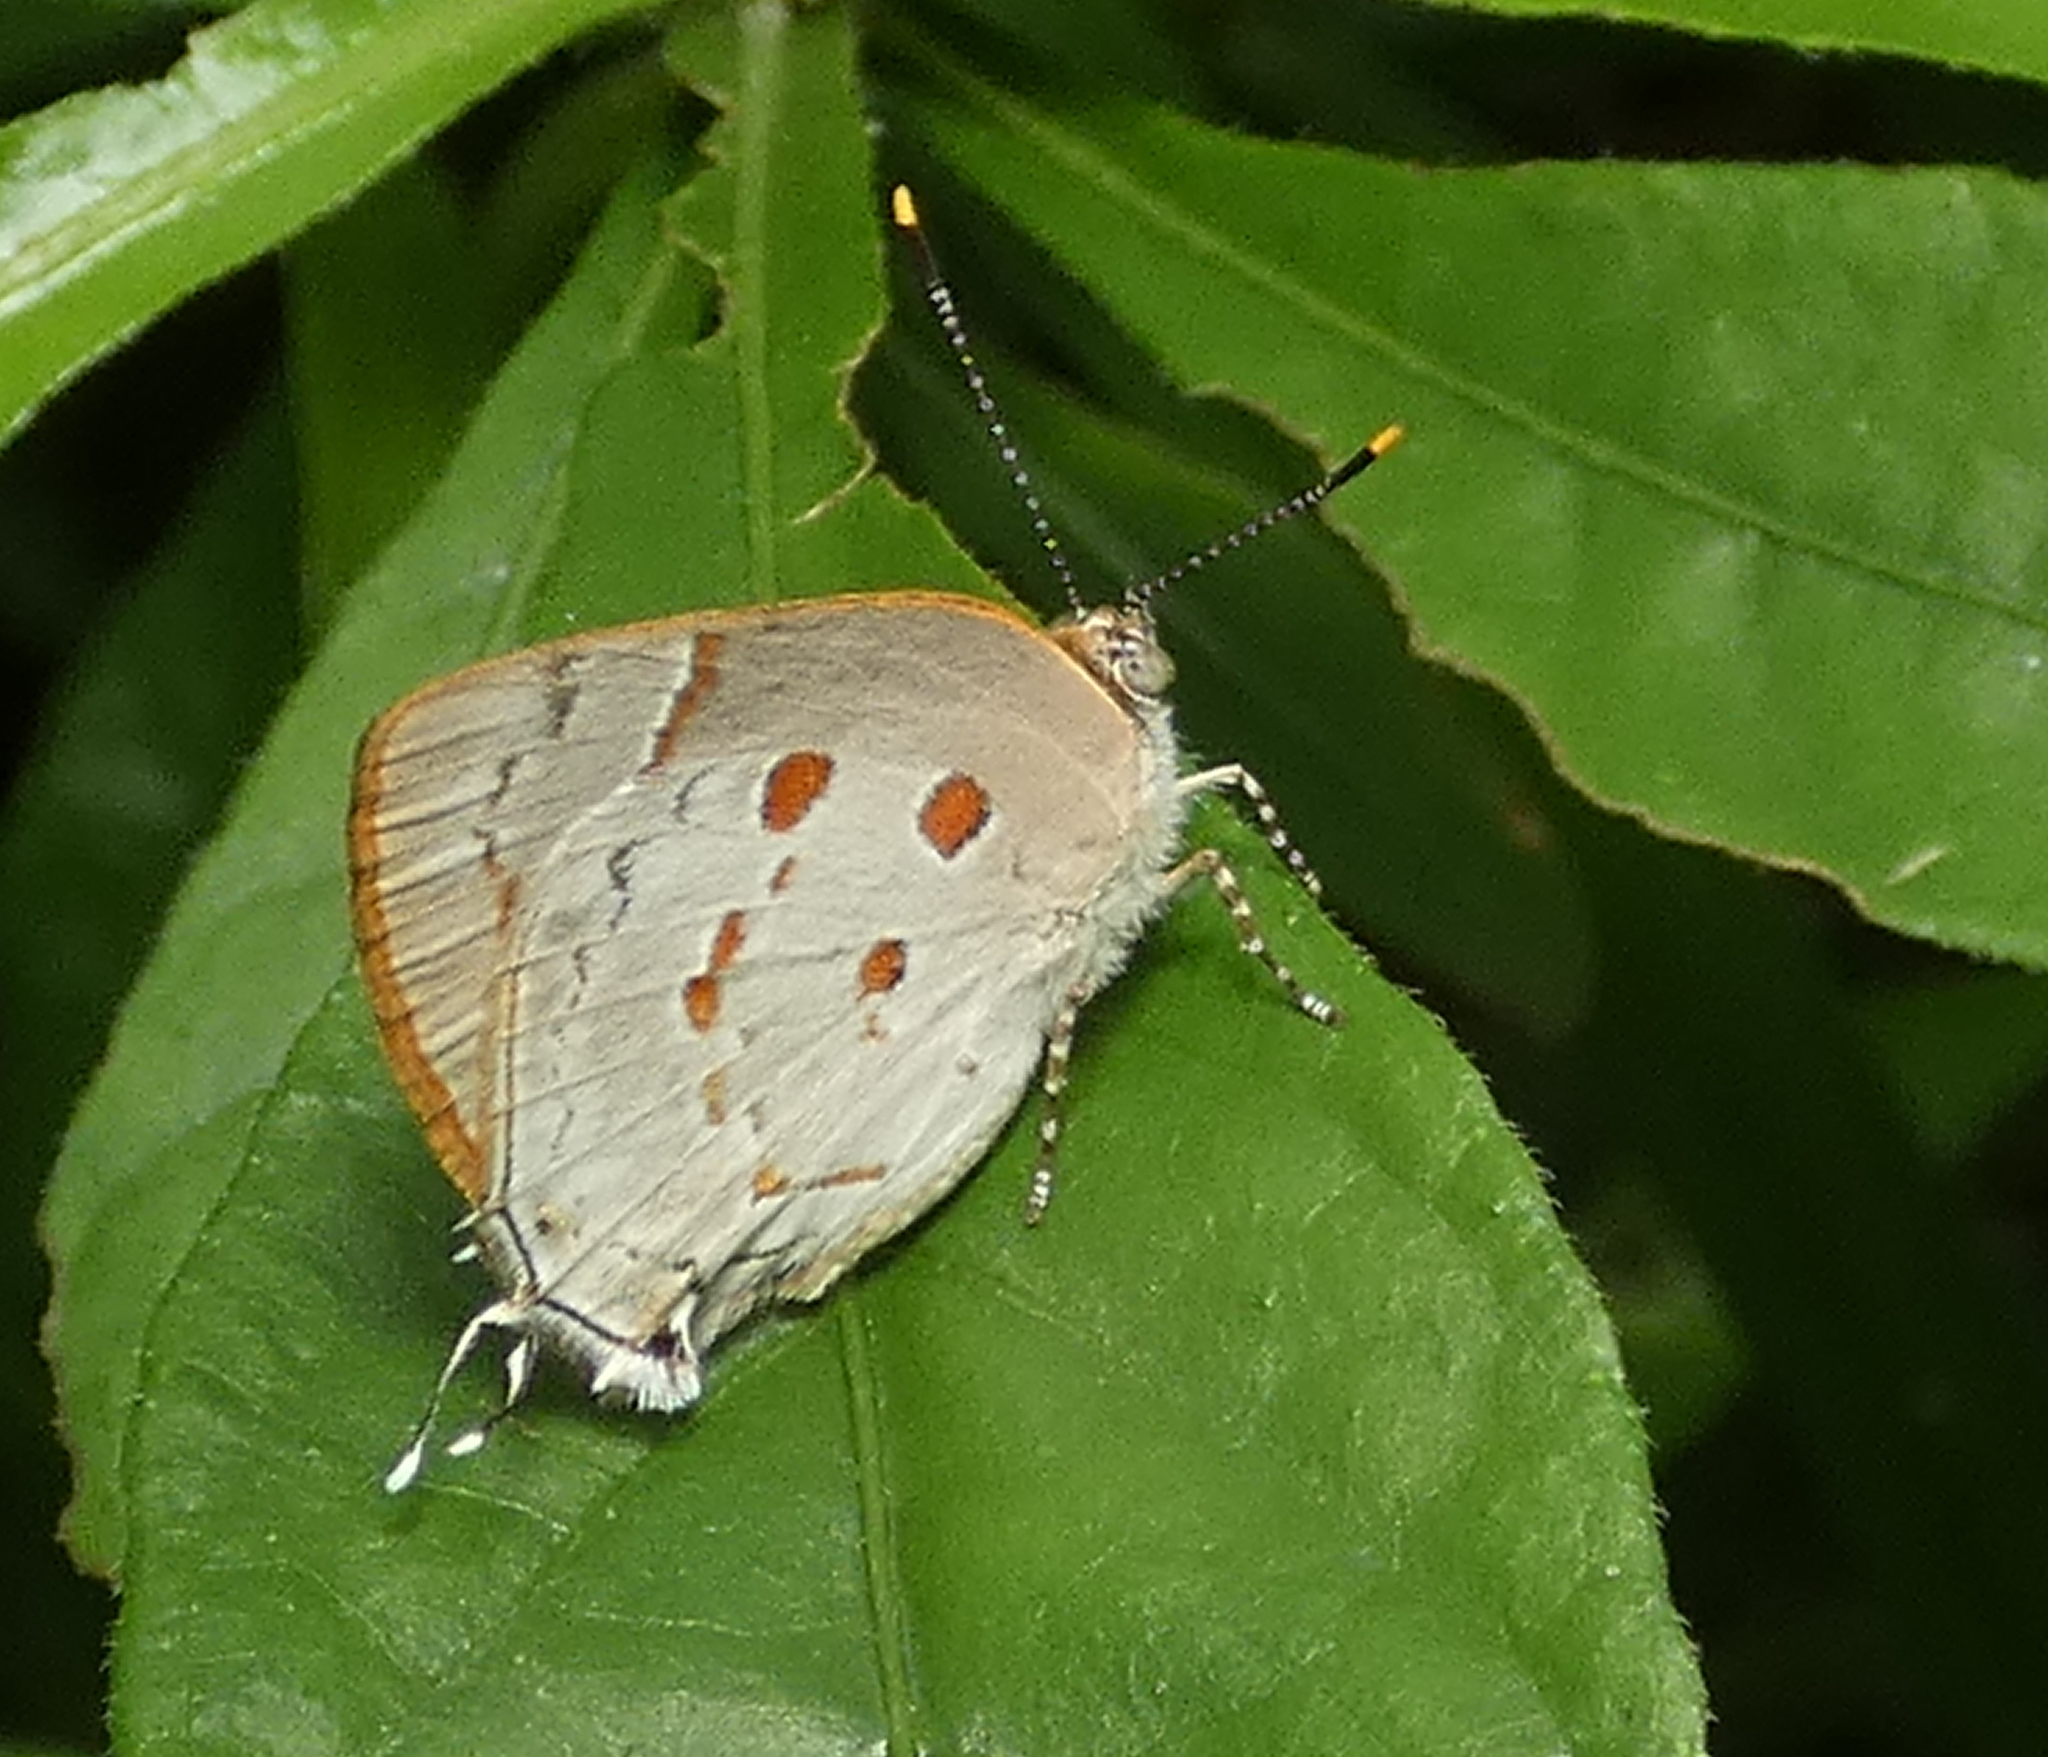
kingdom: Animalia
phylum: Arthropoda
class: Insecta
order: Lepidoptera
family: Lycaenidae
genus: Tmolus
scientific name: Tmolus echion
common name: Red-spotted hairstreak
